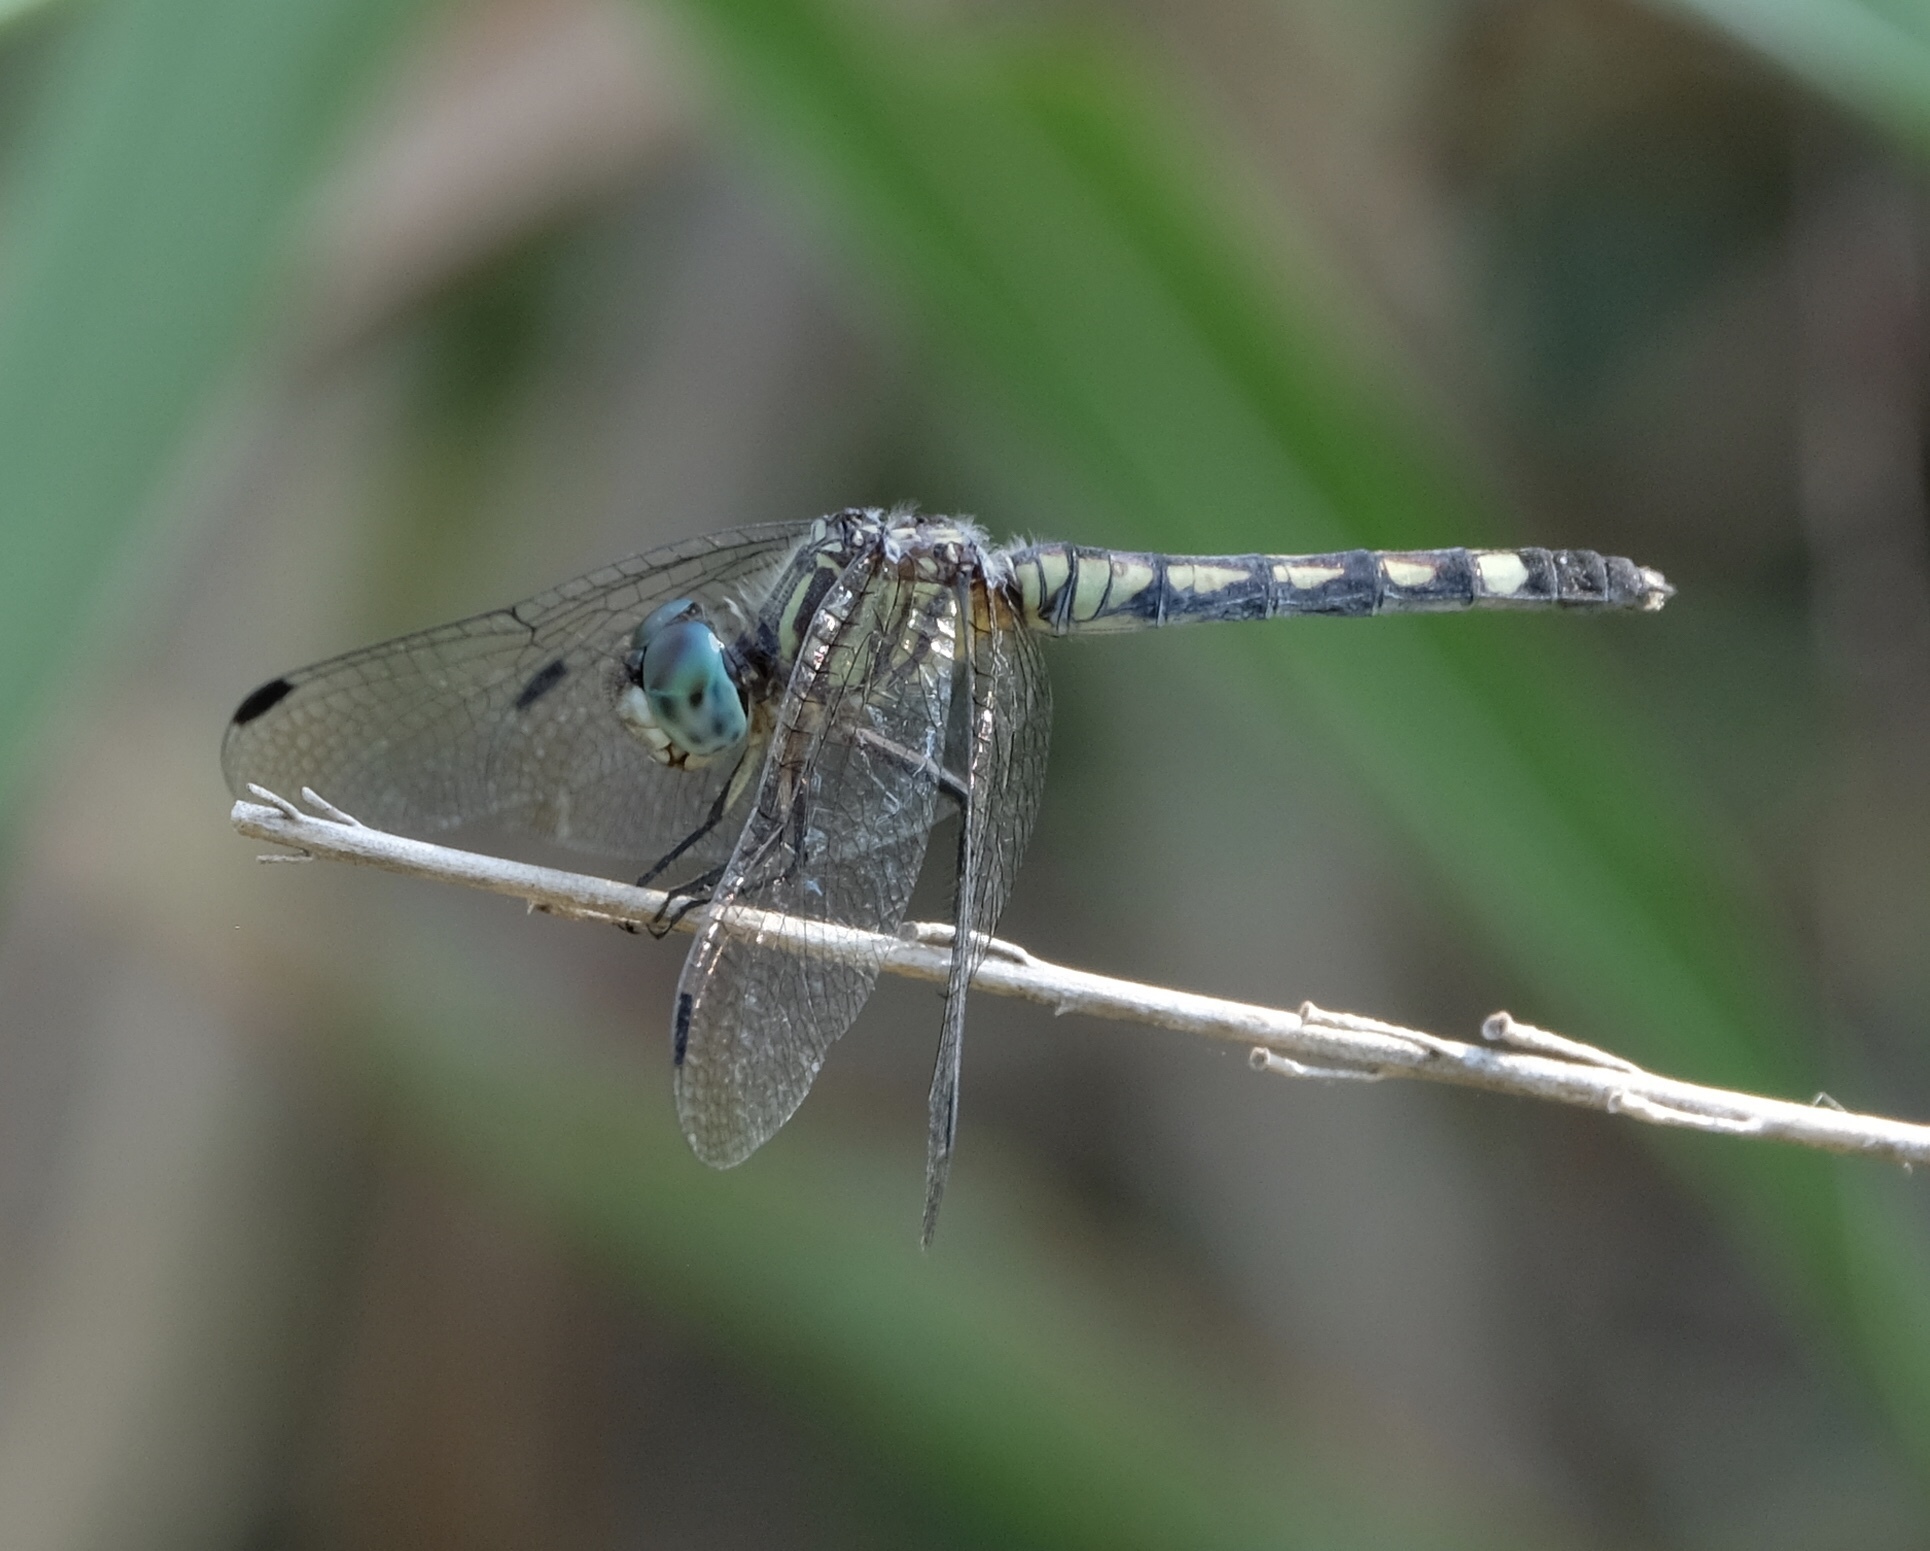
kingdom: Animalia
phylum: Arthropoda
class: Insecta
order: Odonata
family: Libellulidae
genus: Micrathyria
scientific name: Micrathyria hagenii
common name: Thornbush dasher
